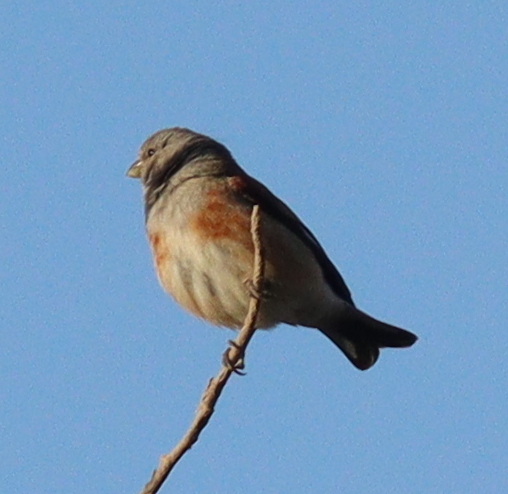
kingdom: Animalia
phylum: Chordata
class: Aves
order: Passeriformes
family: Fringillidae
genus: Linaria
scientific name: Linaria yemenensis
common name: Yemen linnet
